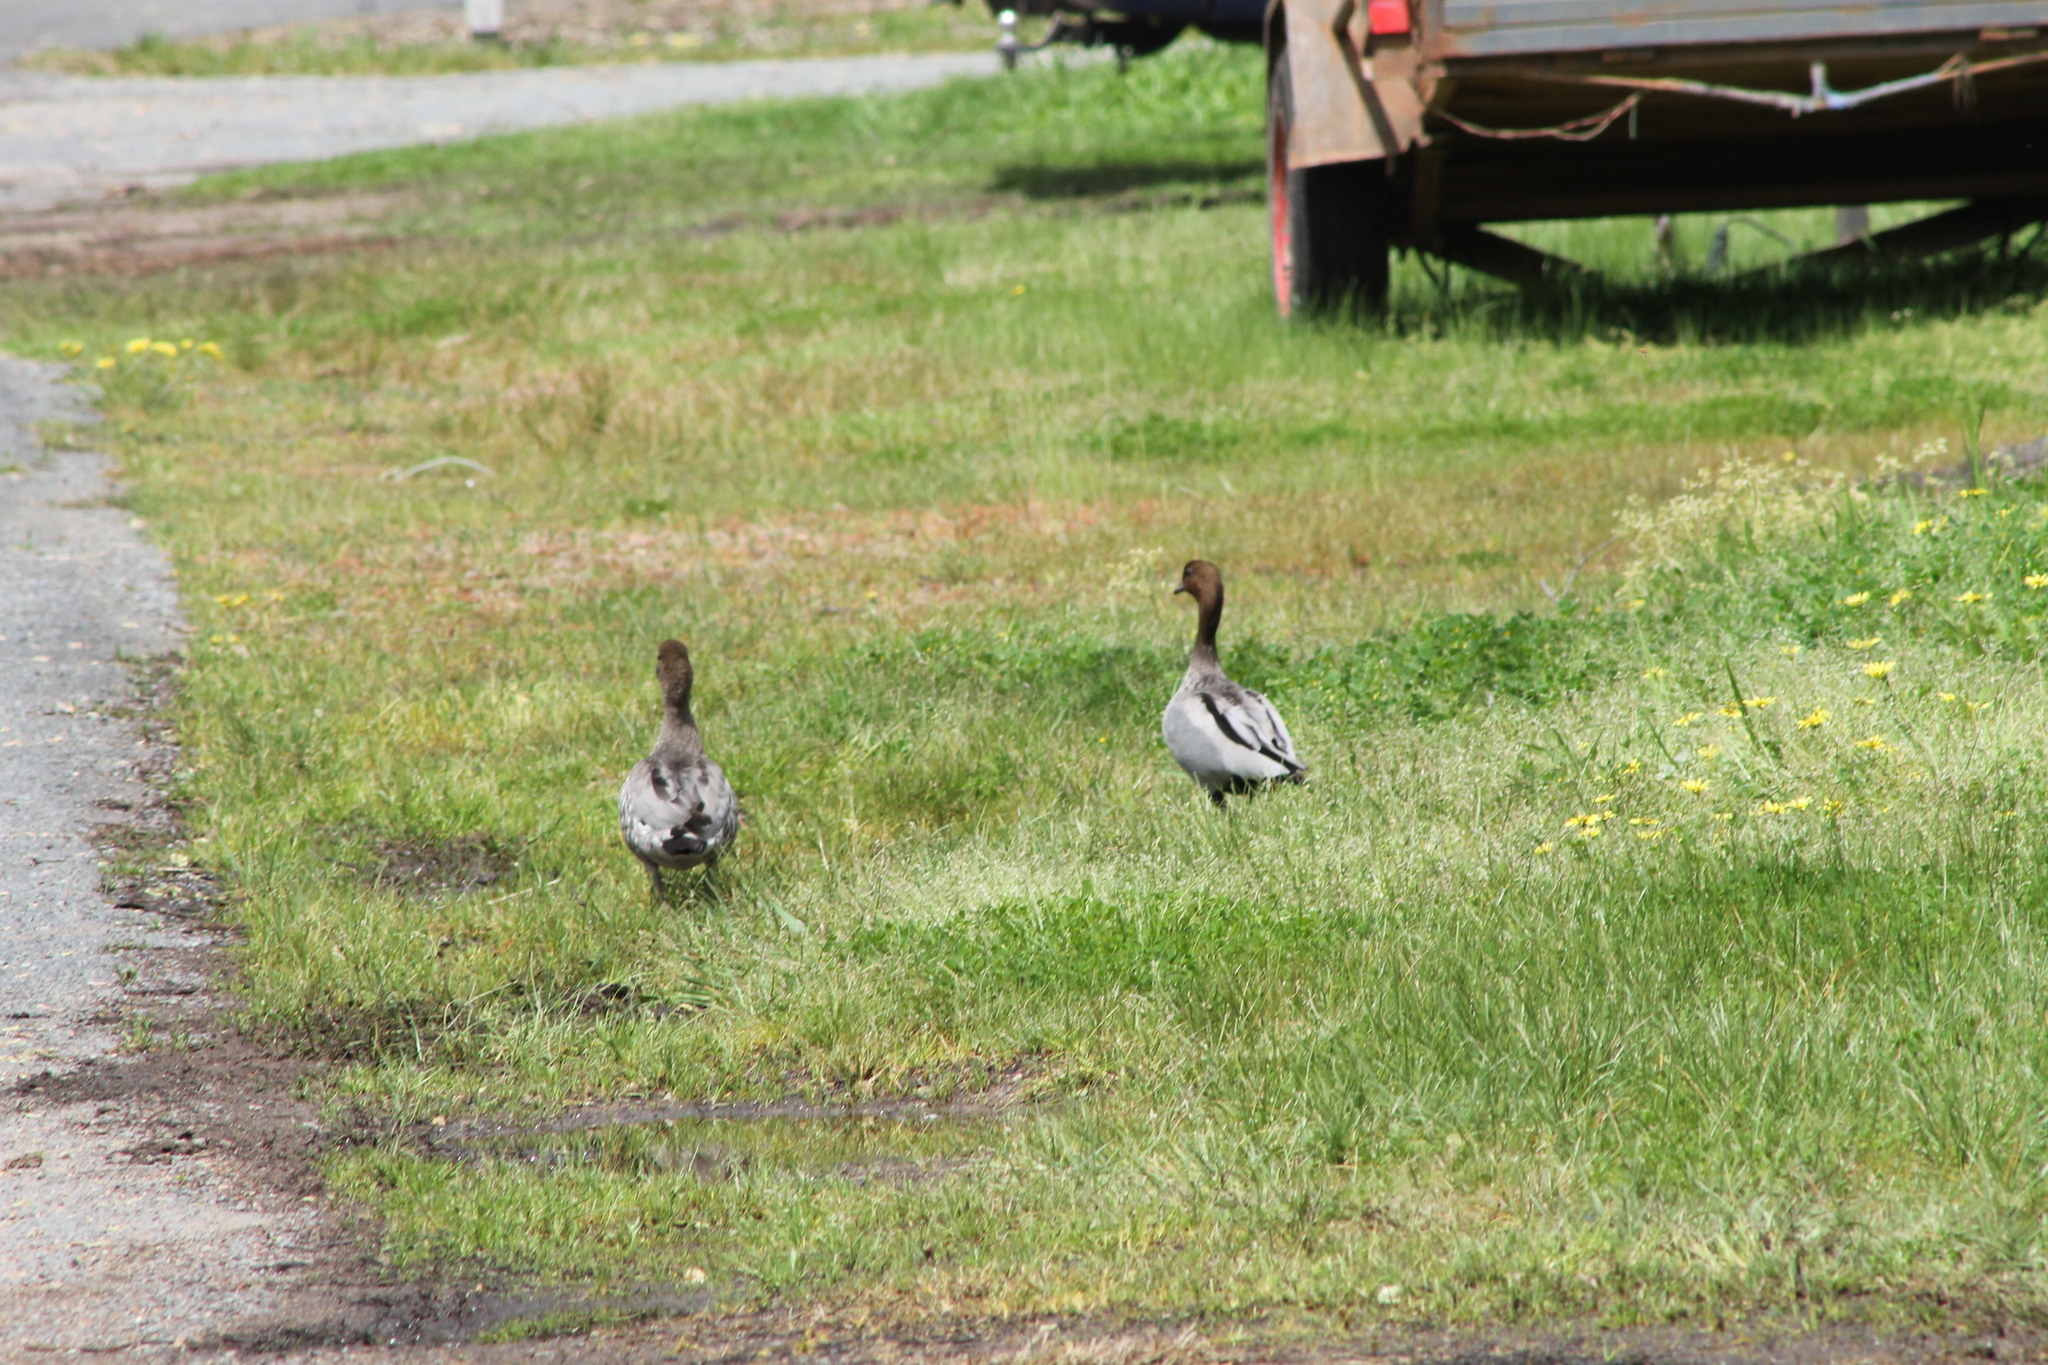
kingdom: Animalia
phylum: Chordata
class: Aves
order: Anseriformes
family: Anatidae
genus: Chenonetta
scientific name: Chenonetta jubata
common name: Maned duck
